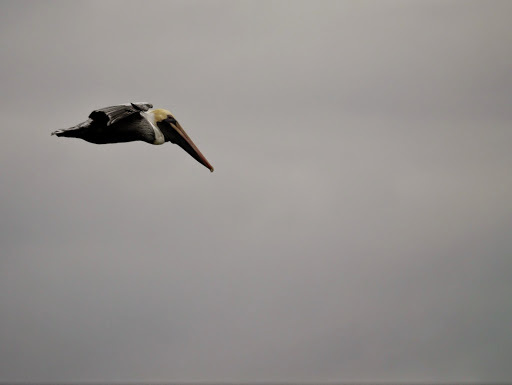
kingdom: Animalia
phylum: Chordata
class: Aves
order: Pelecaniformes
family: Pelecanidae
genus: Pelecanus
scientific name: Pelecanus occidentalis
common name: Brown pelican
